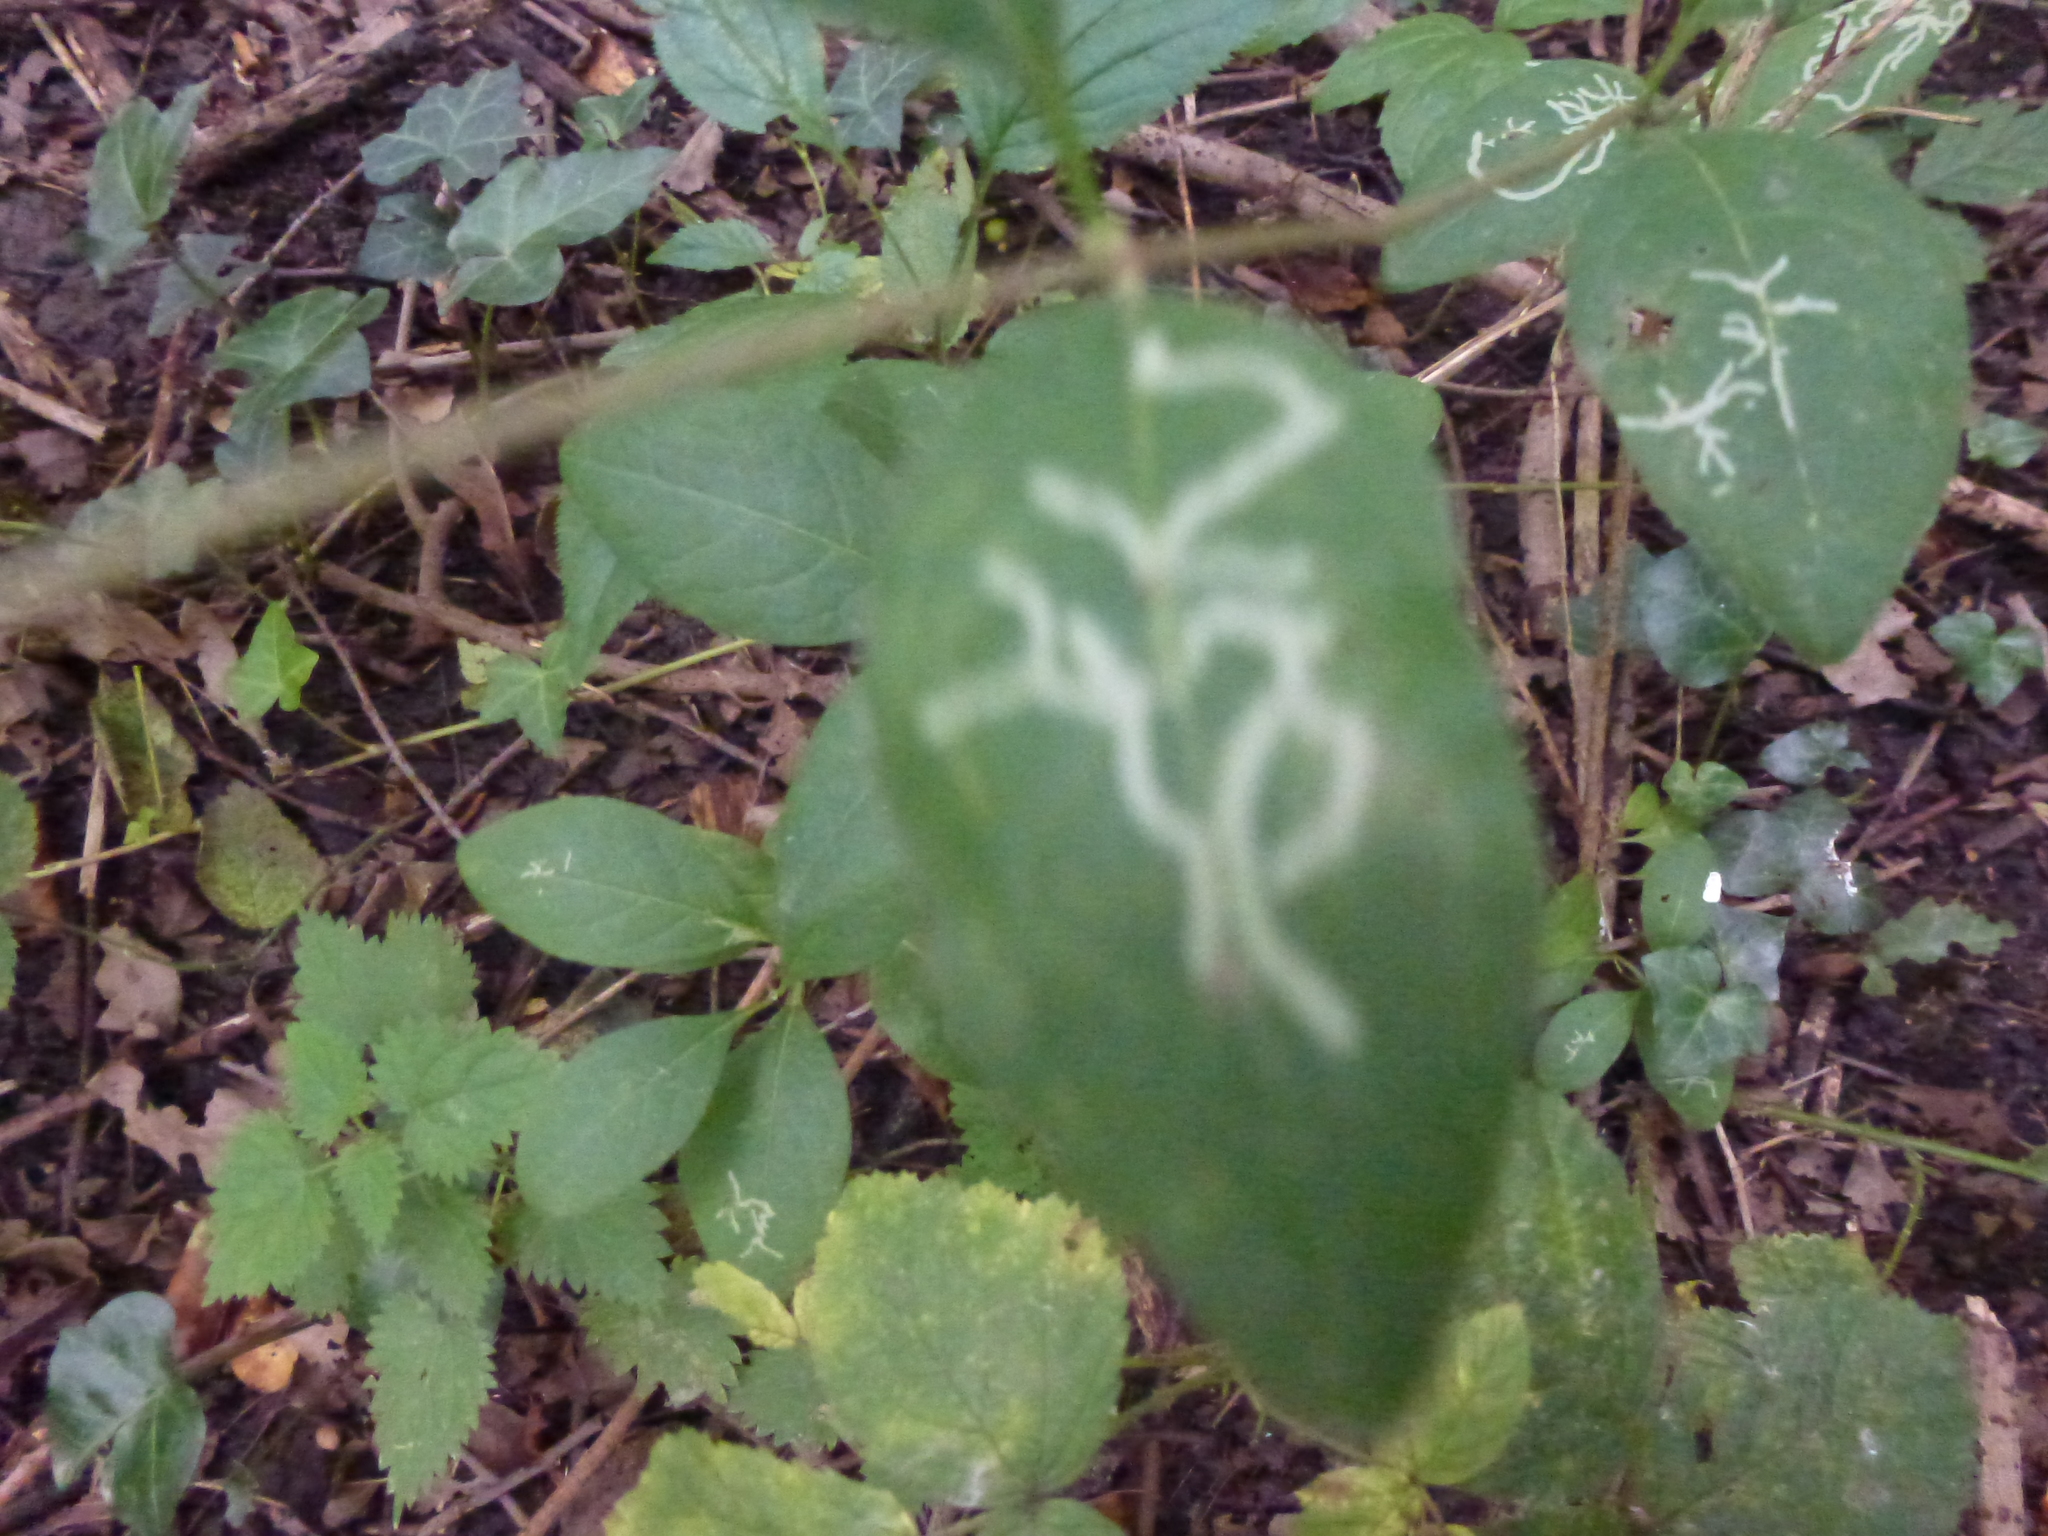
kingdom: Animalia
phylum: Arthropoda
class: Insecta
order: Diptera
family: Agromyzidae
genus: Phytomyza
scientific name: Phytomyza aprilina
